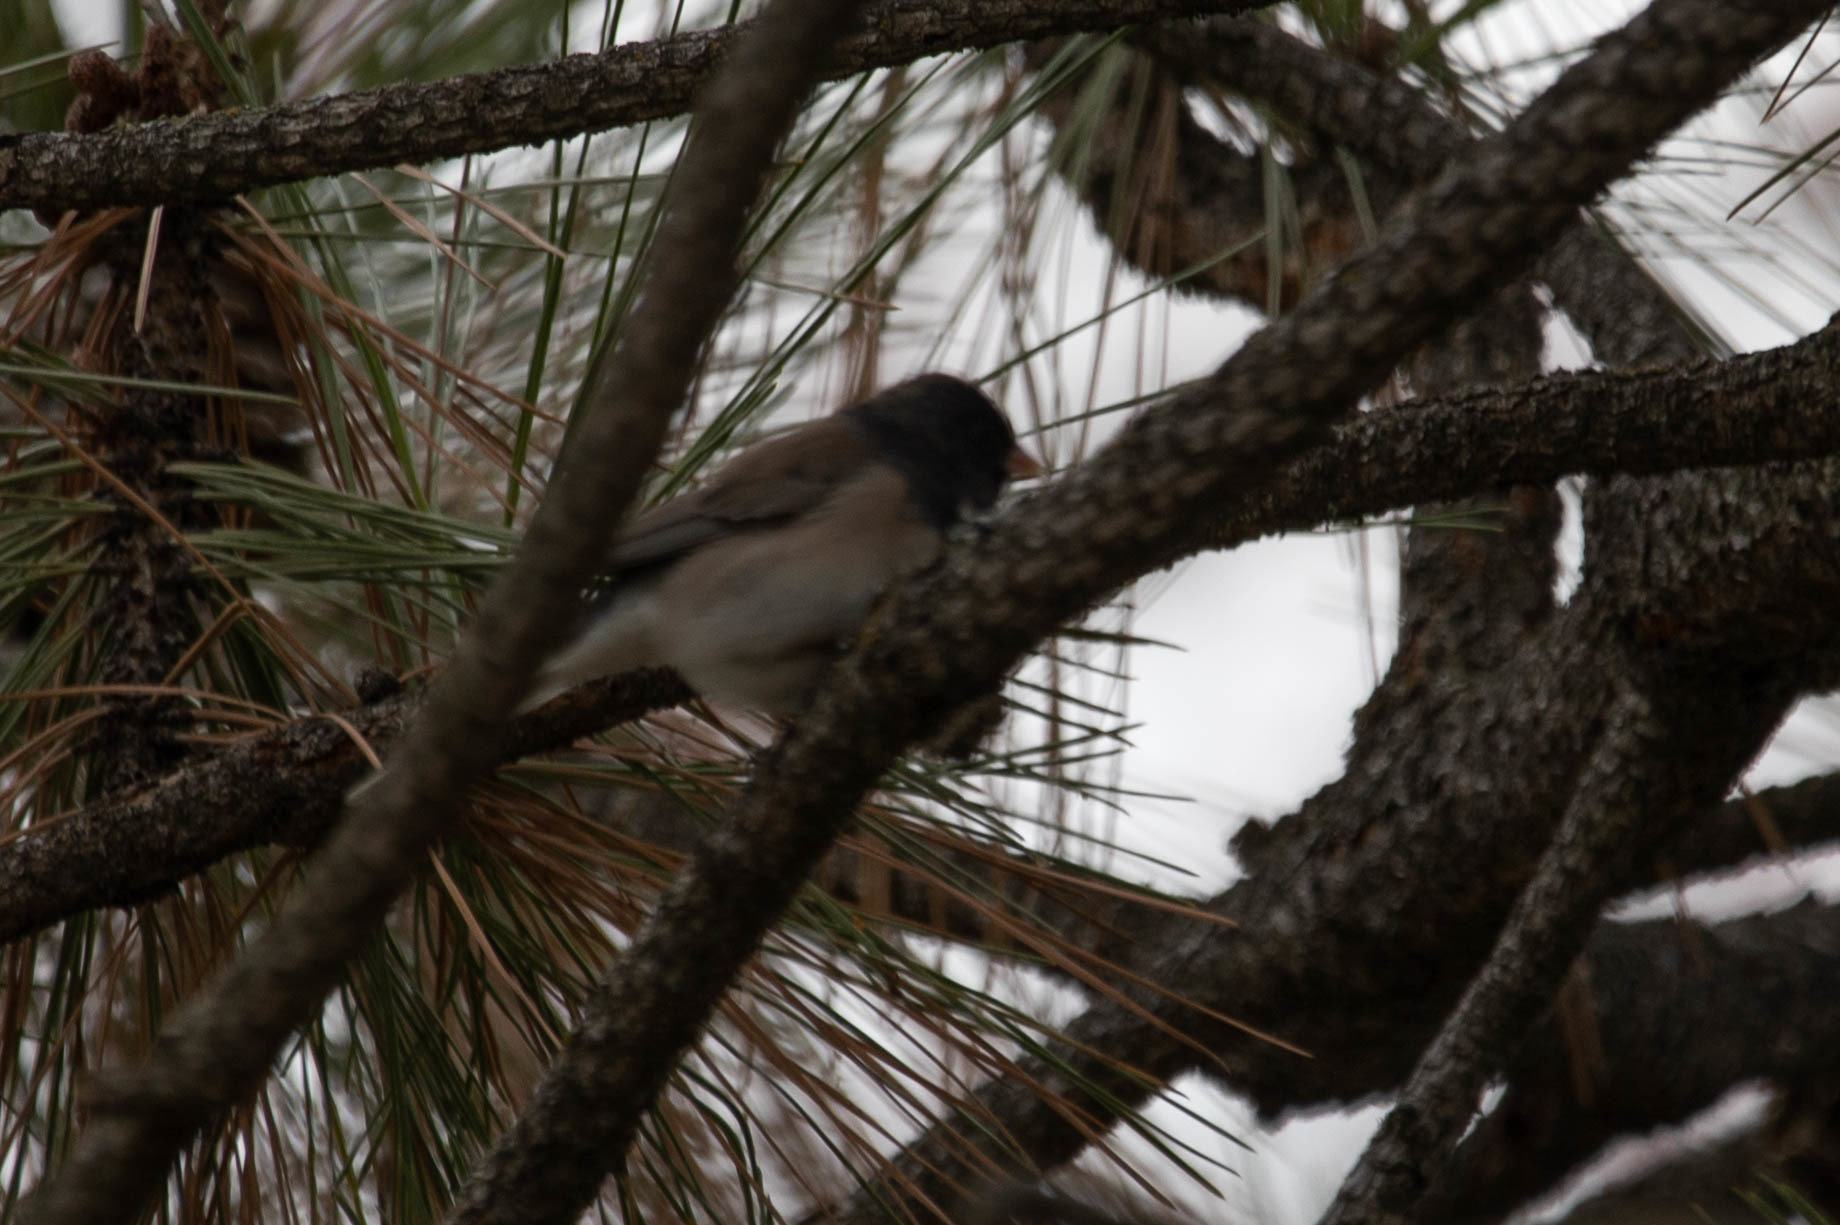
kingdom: Animalia
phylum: Chordata
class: Aves
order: Passeriformes
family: Passerellidae
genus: Junco
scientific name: Junco hyemalis
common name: Dark-eyed junco
